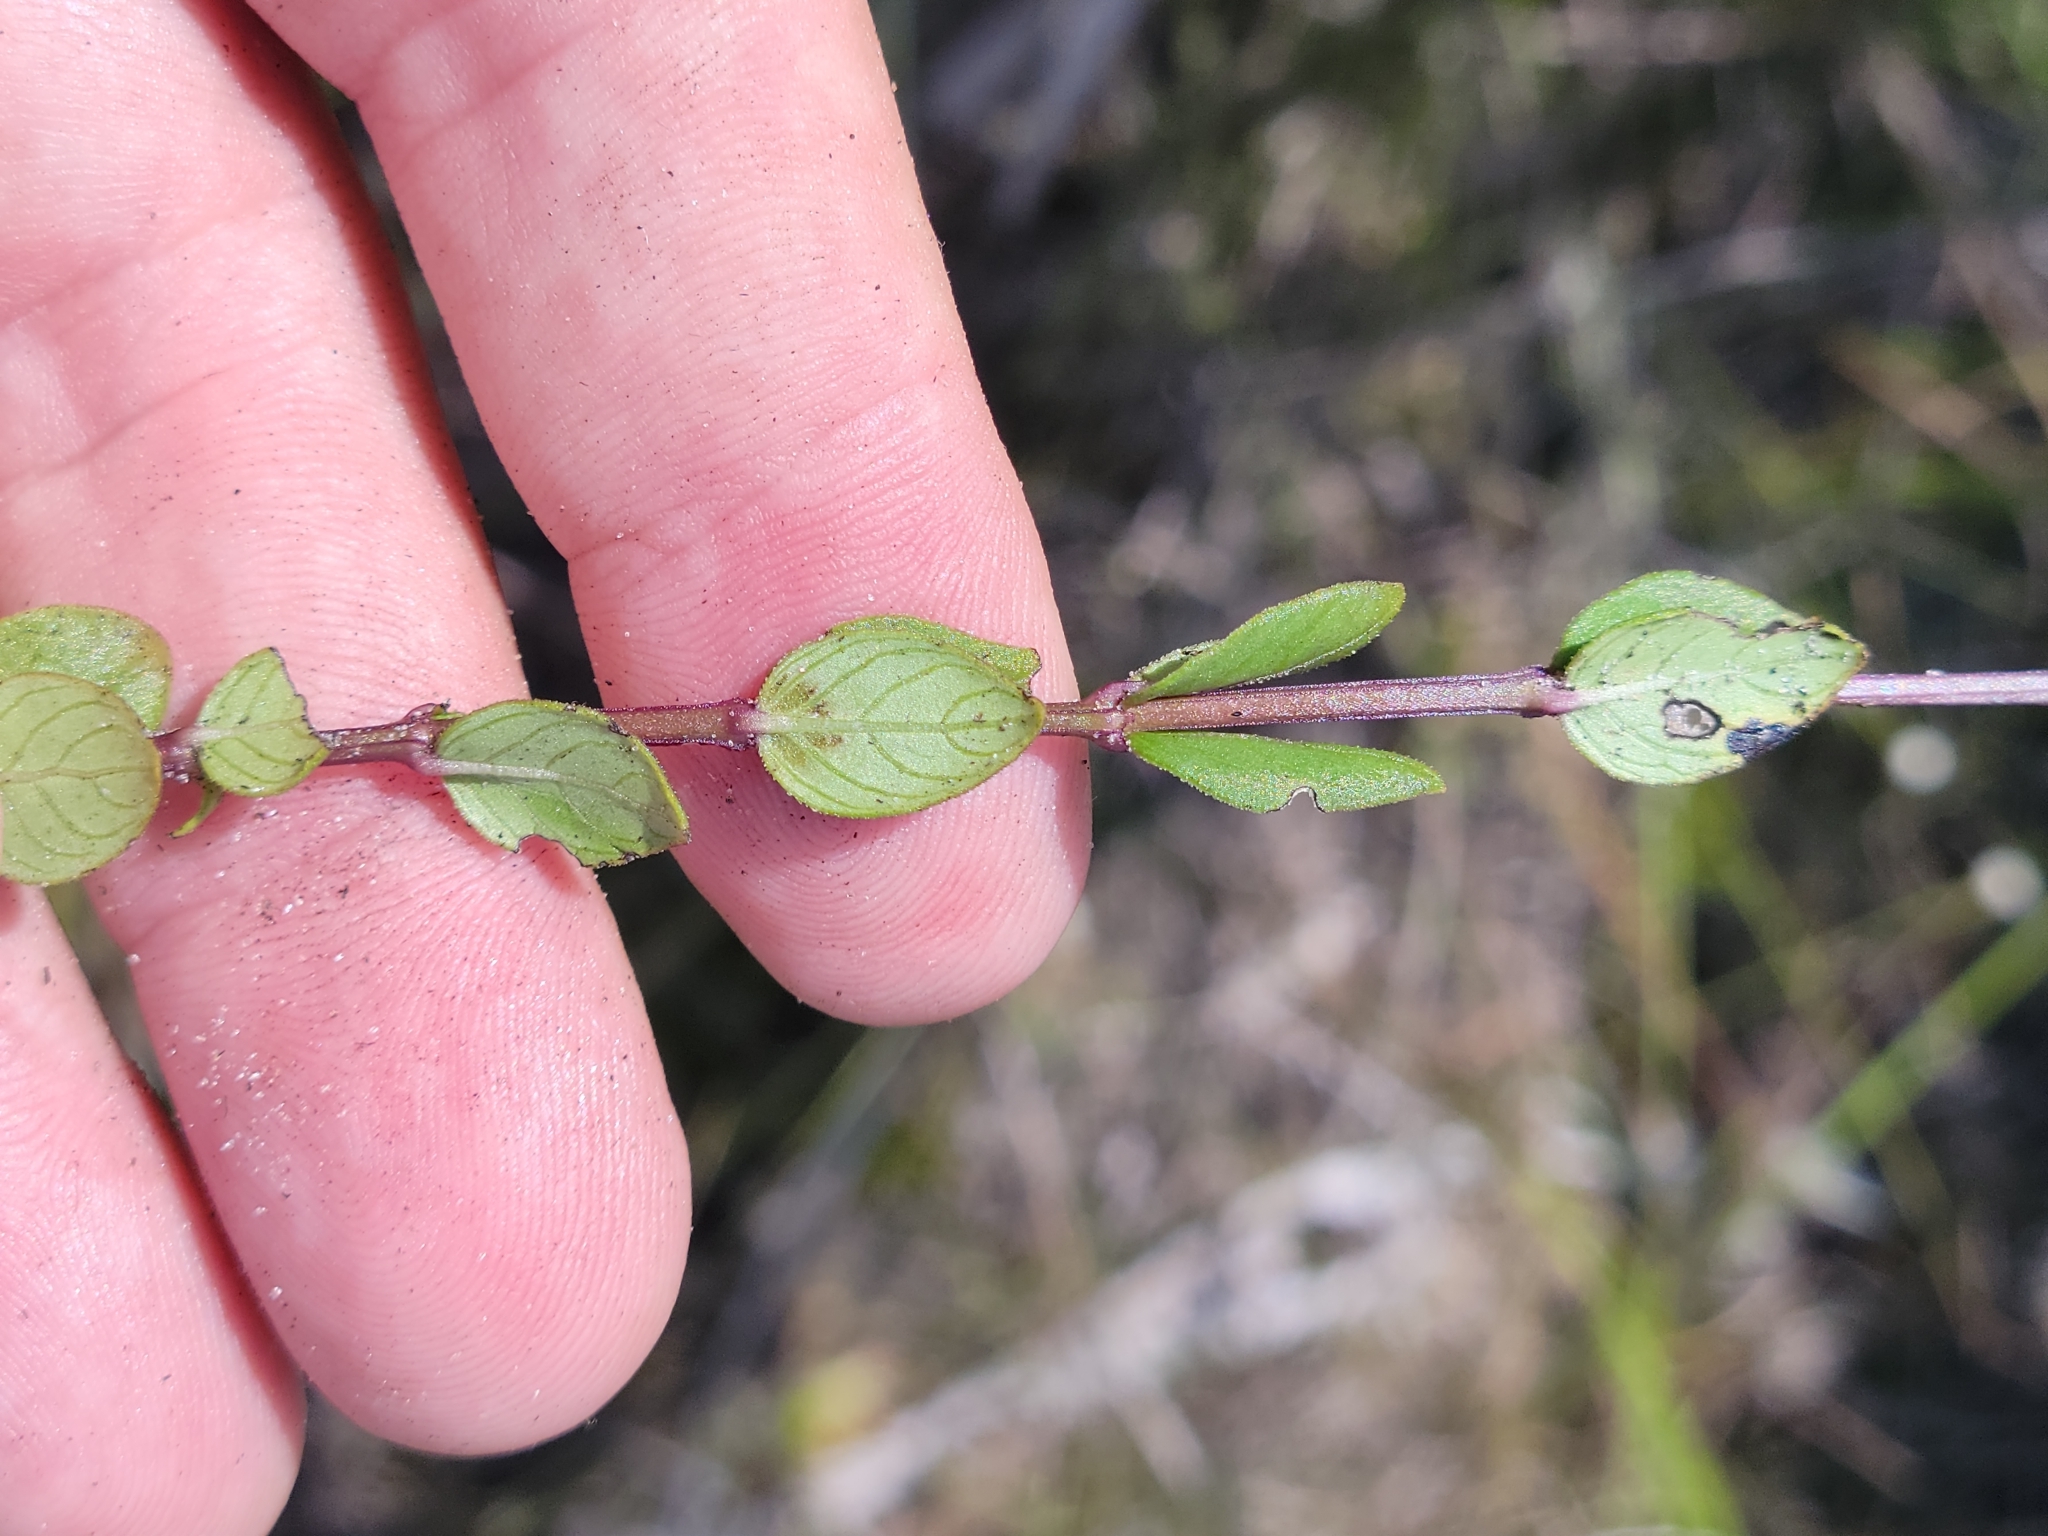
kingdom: Plantae
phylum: Tracheophyta
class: Magnoliopsida
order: Gentianales
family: Loganiaceae
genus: Mitreola
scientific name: Mitreola sessilifolia
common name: Swamp hornpod
